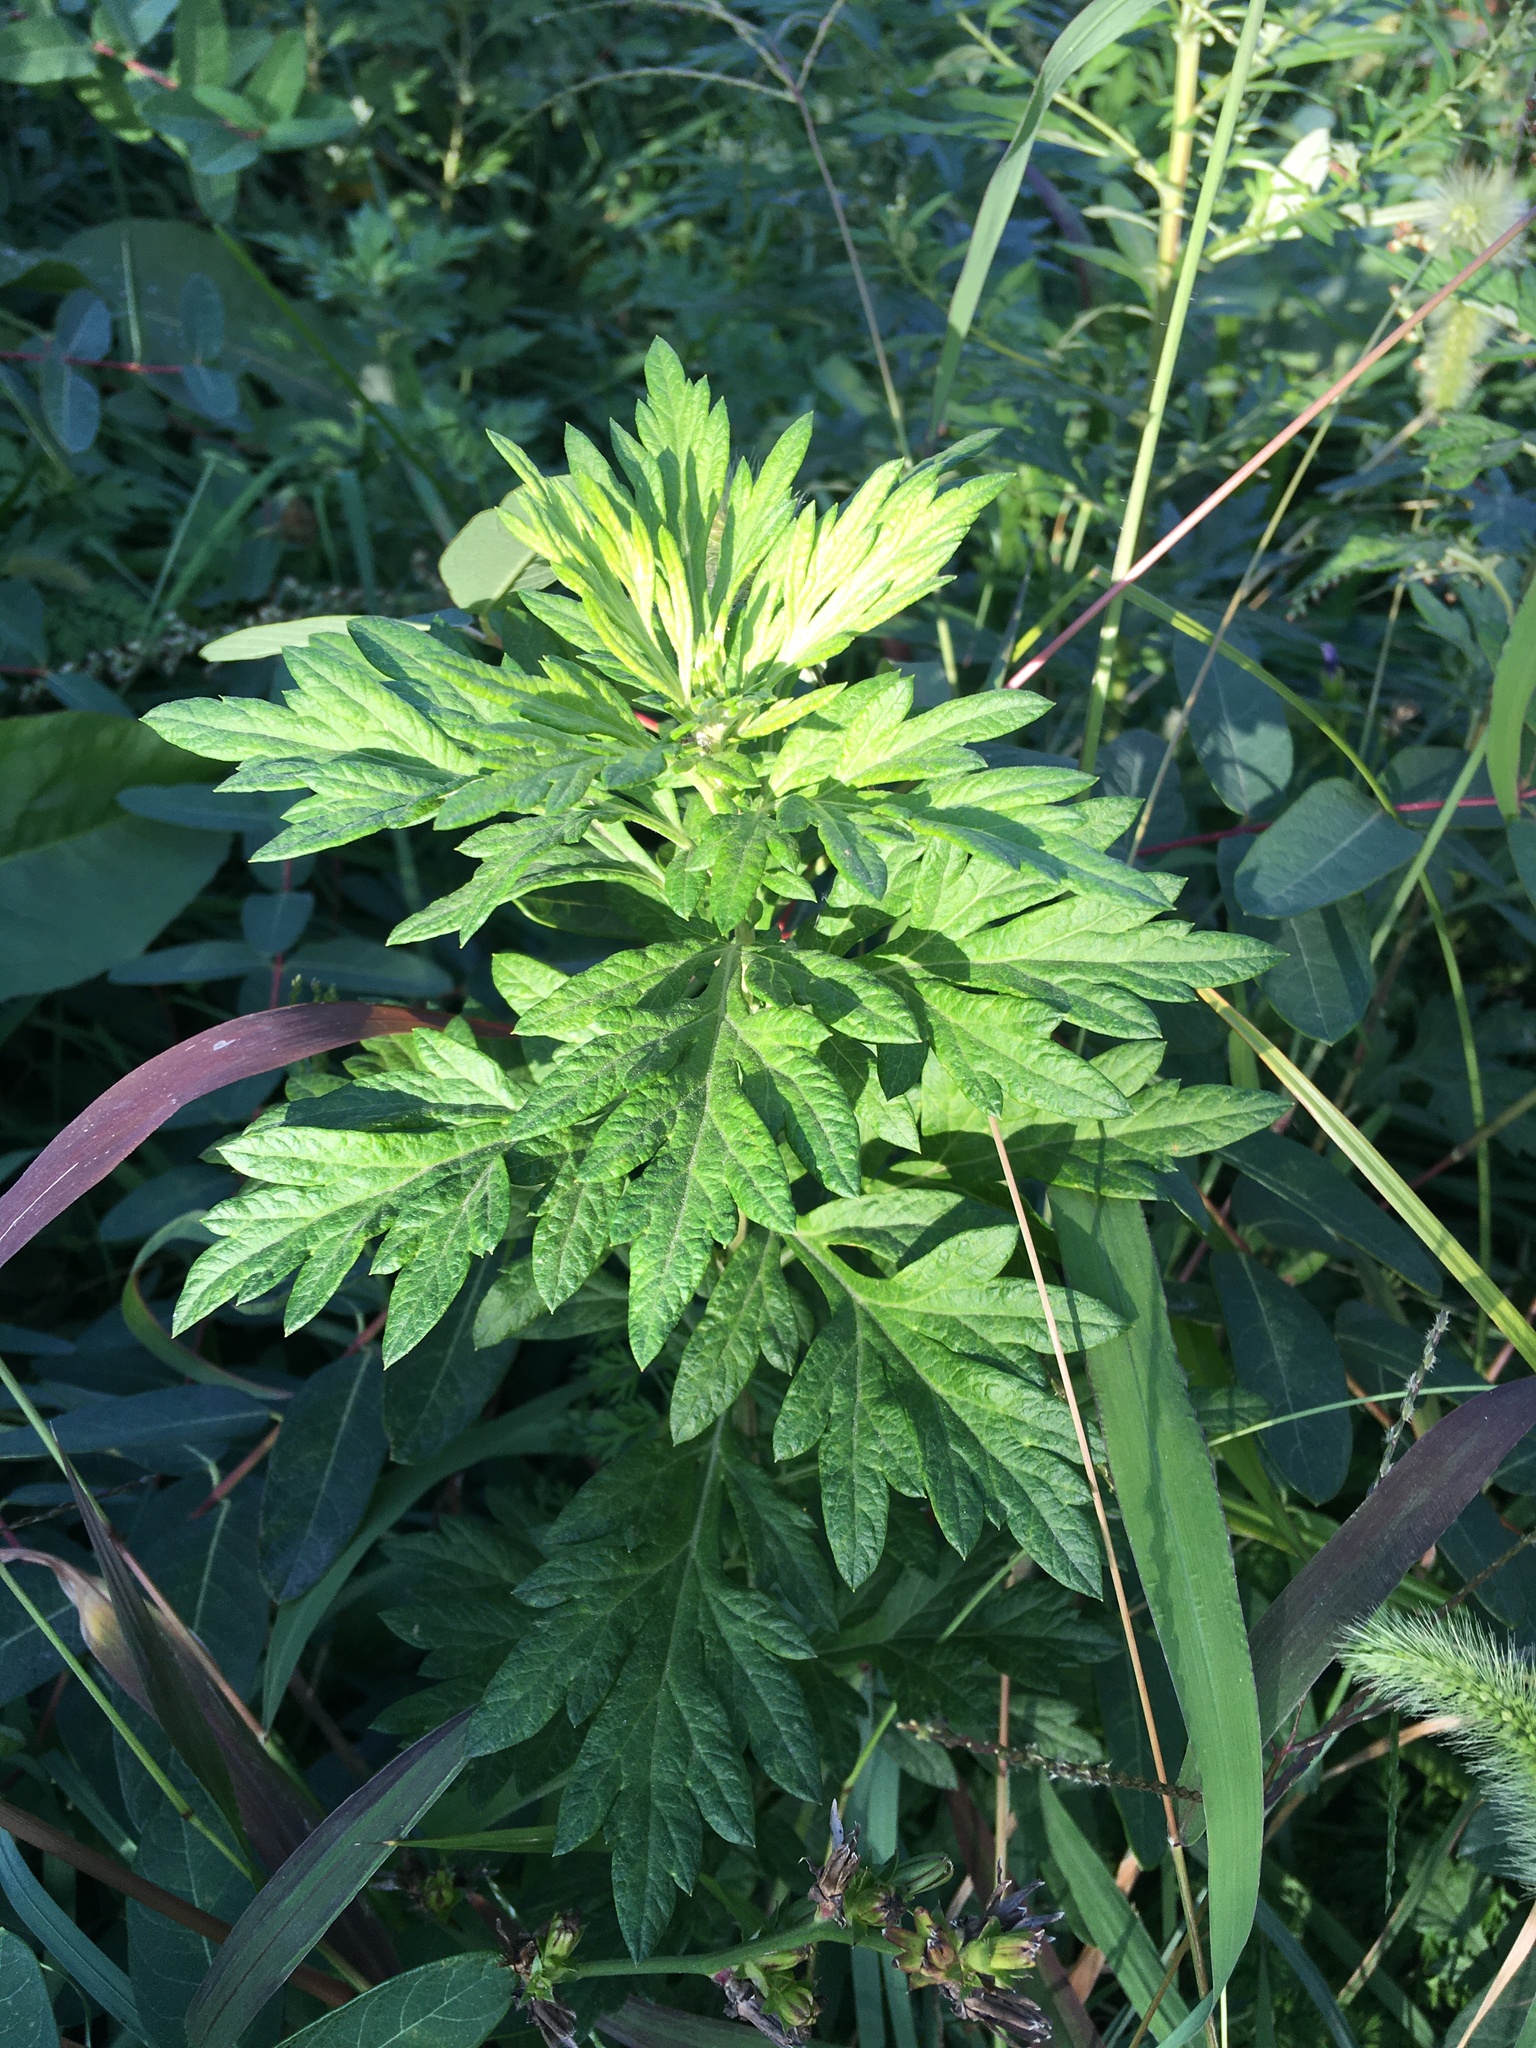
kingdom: Plantae
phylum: Tracheophyta
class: Magnoliopsida
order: Asterales
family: Asteraceae
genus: Artemisia
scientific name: Artemisia vulgaris
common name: Mugwort
